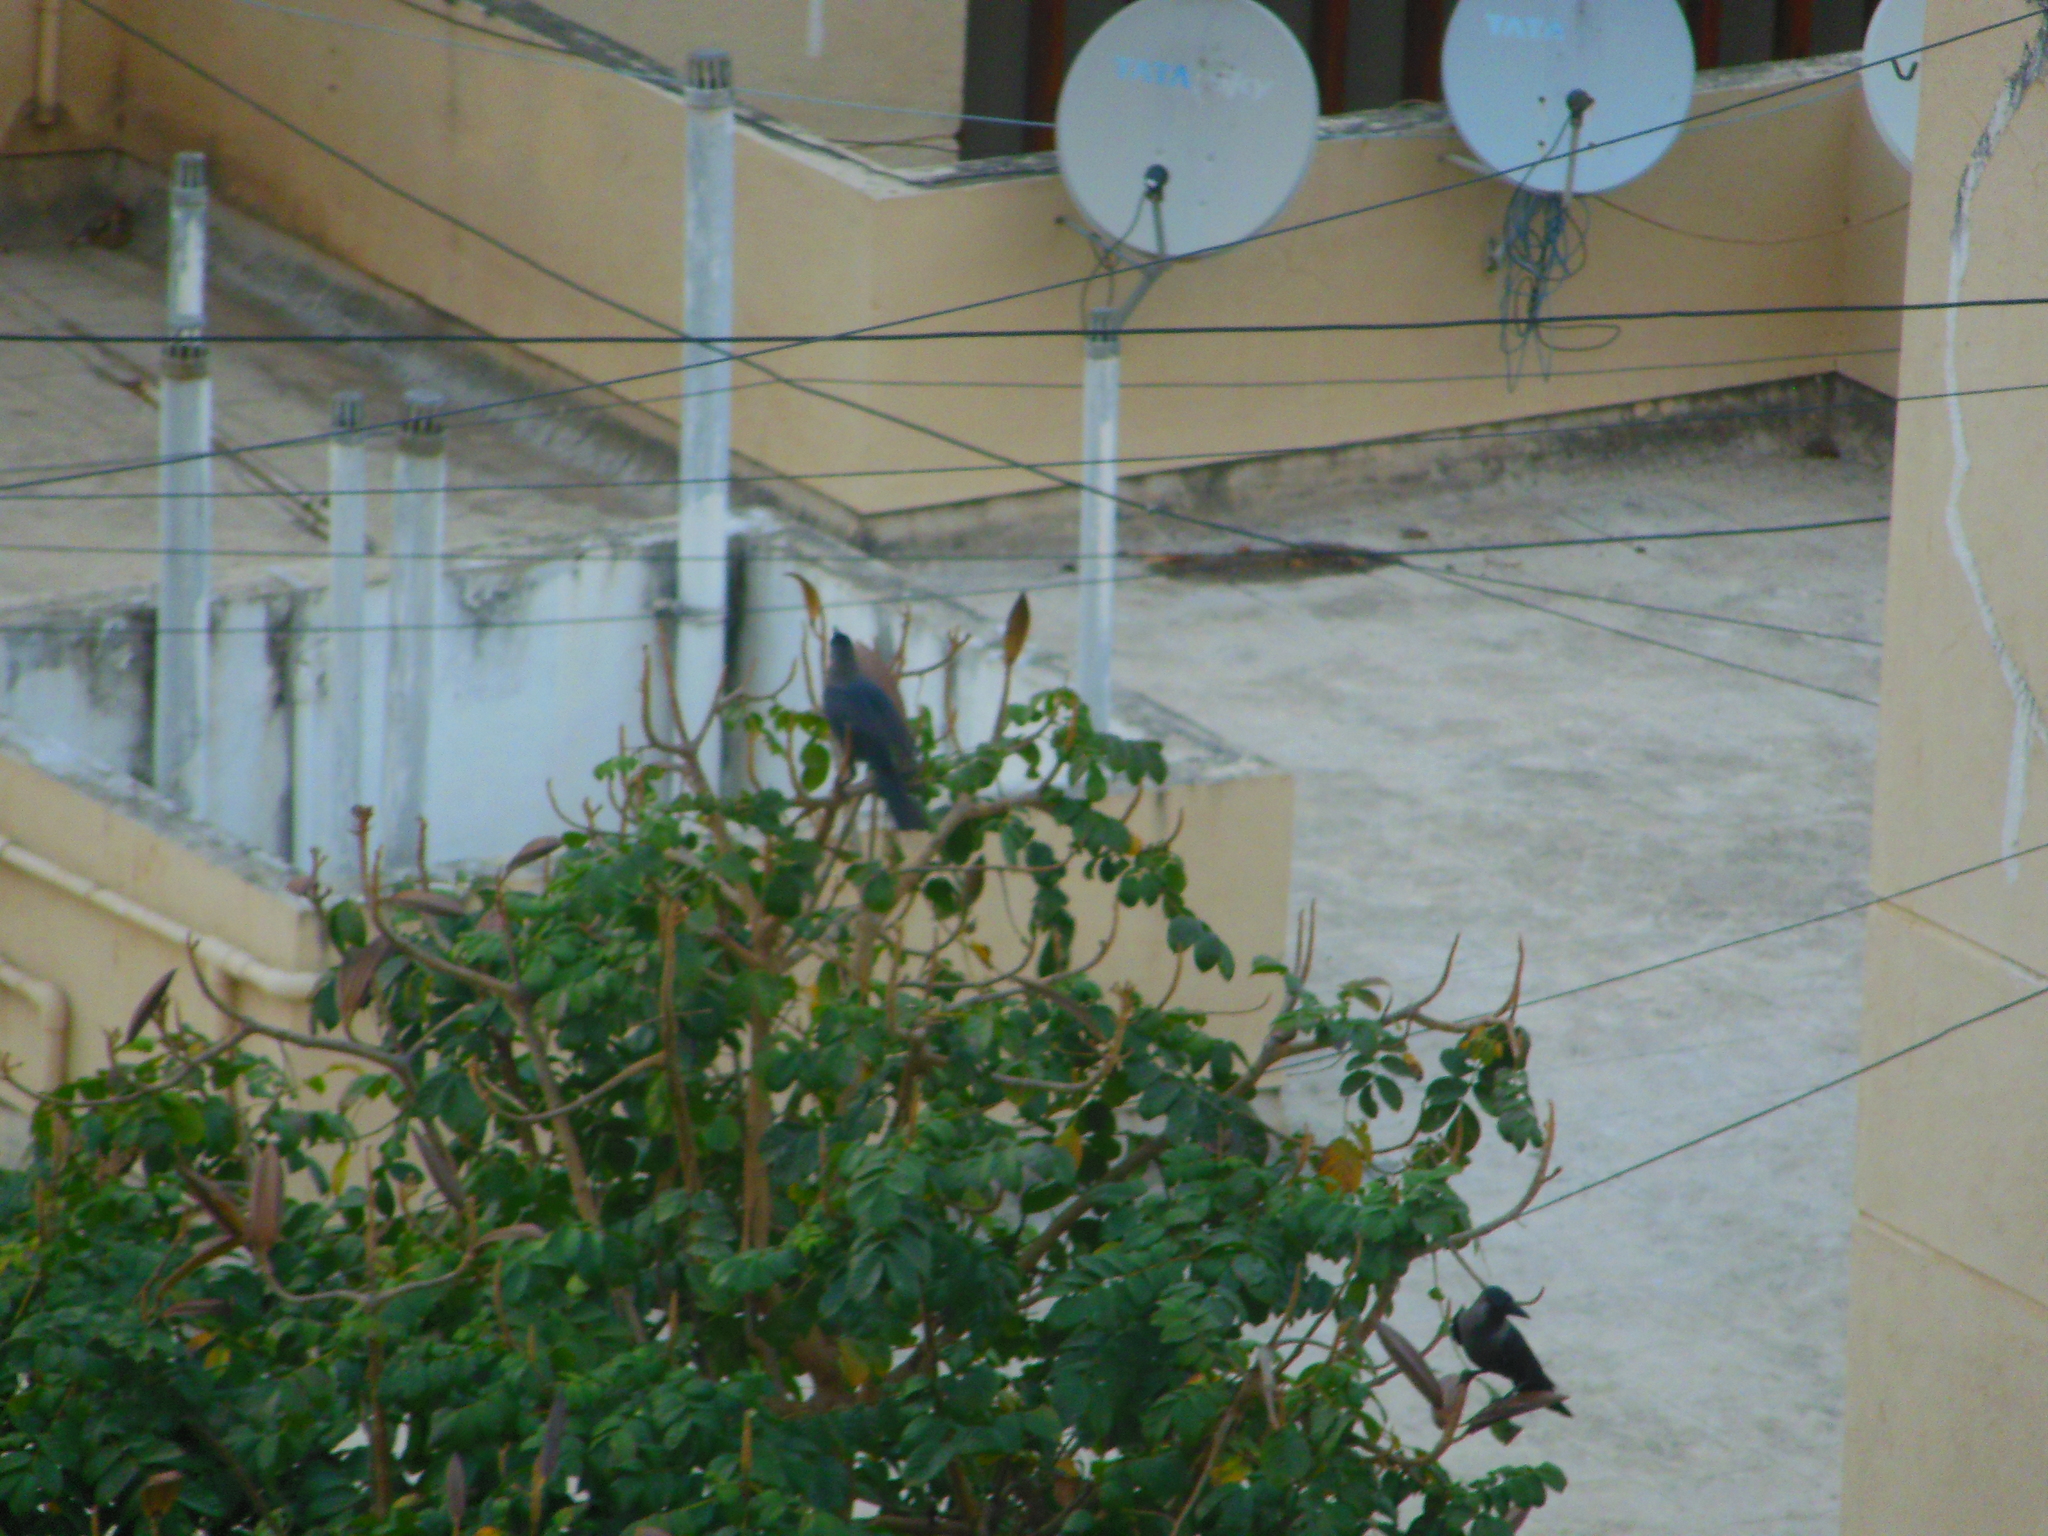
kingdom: Animalia
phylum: Chordata
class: Aves
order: Passeriformes
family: Corvidae
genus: Corvus
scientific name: Corvus splendens
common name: House crow
